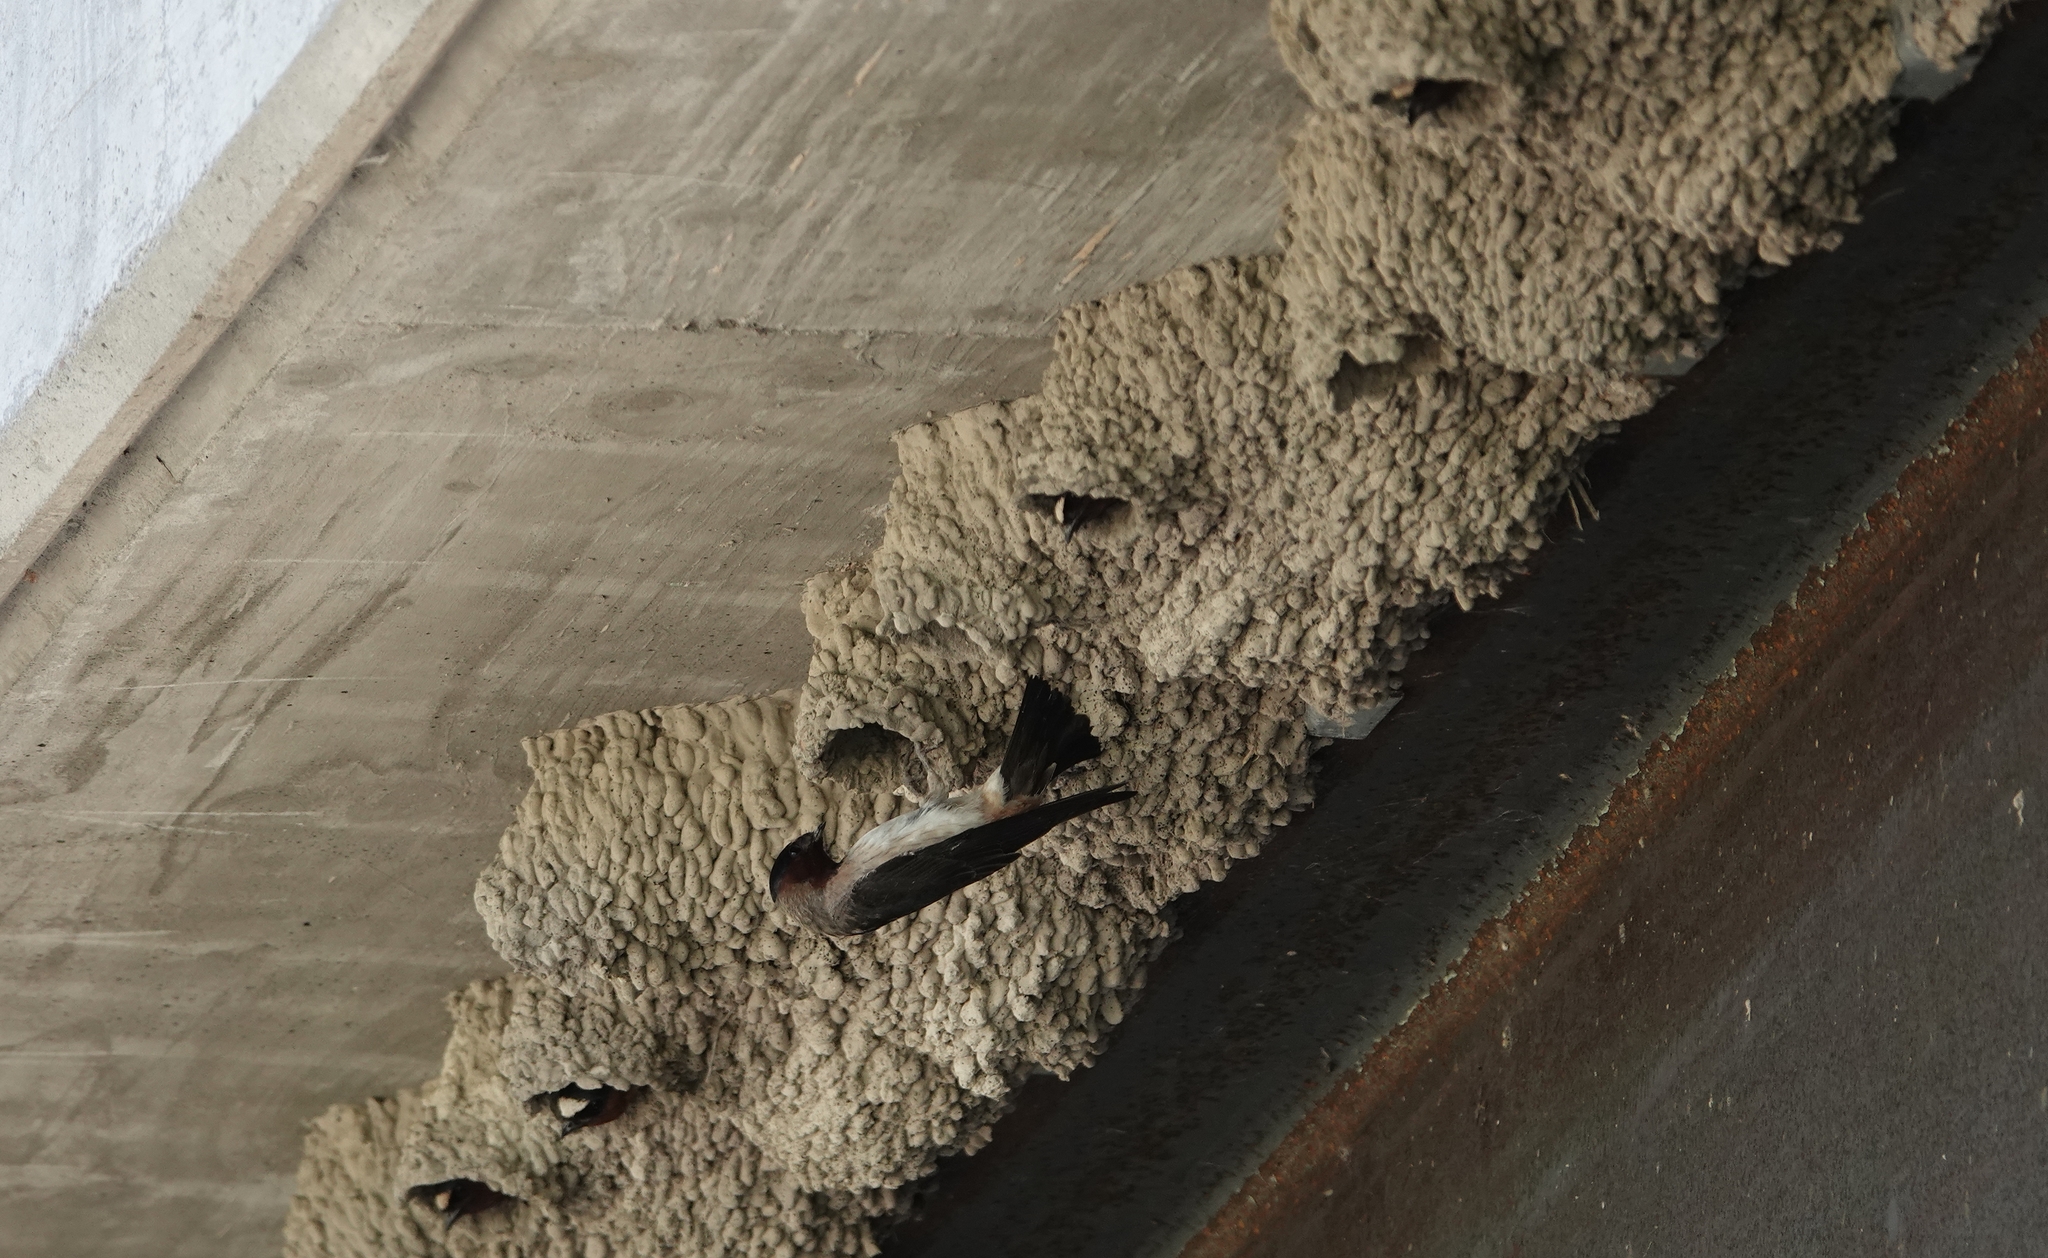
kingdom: Animalia
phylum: Chordata
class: Aves
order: Passeriformes
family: Hirundinidae
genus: Petrochelidon
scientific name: Petrochelidon pyrrhonota
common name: American cliff swallow
